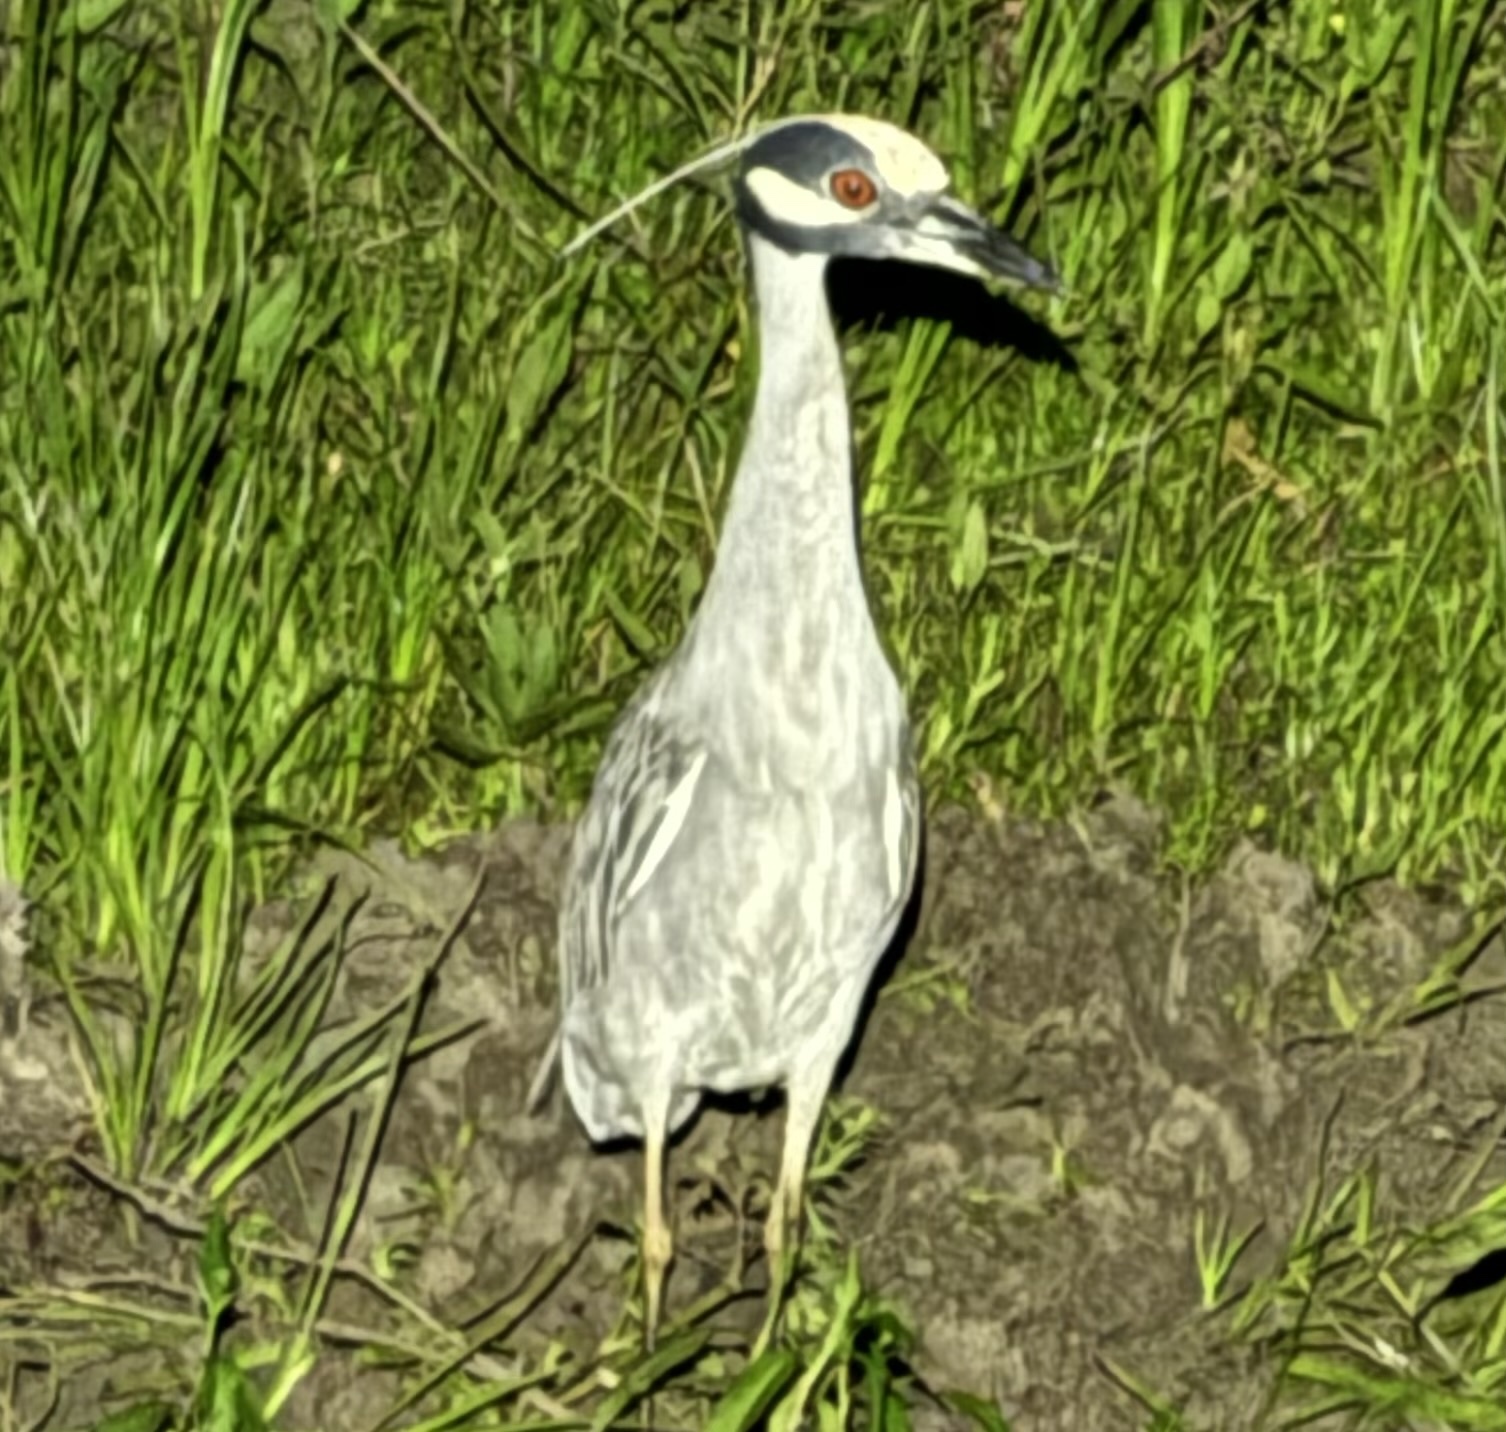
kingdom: Animalia
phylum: Chordata
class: Aves
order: Pelecaniformes
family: Ardeidae
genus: Nyctanassa
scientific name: Nyctanassa violacea
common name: Yellow-crowned night heron
